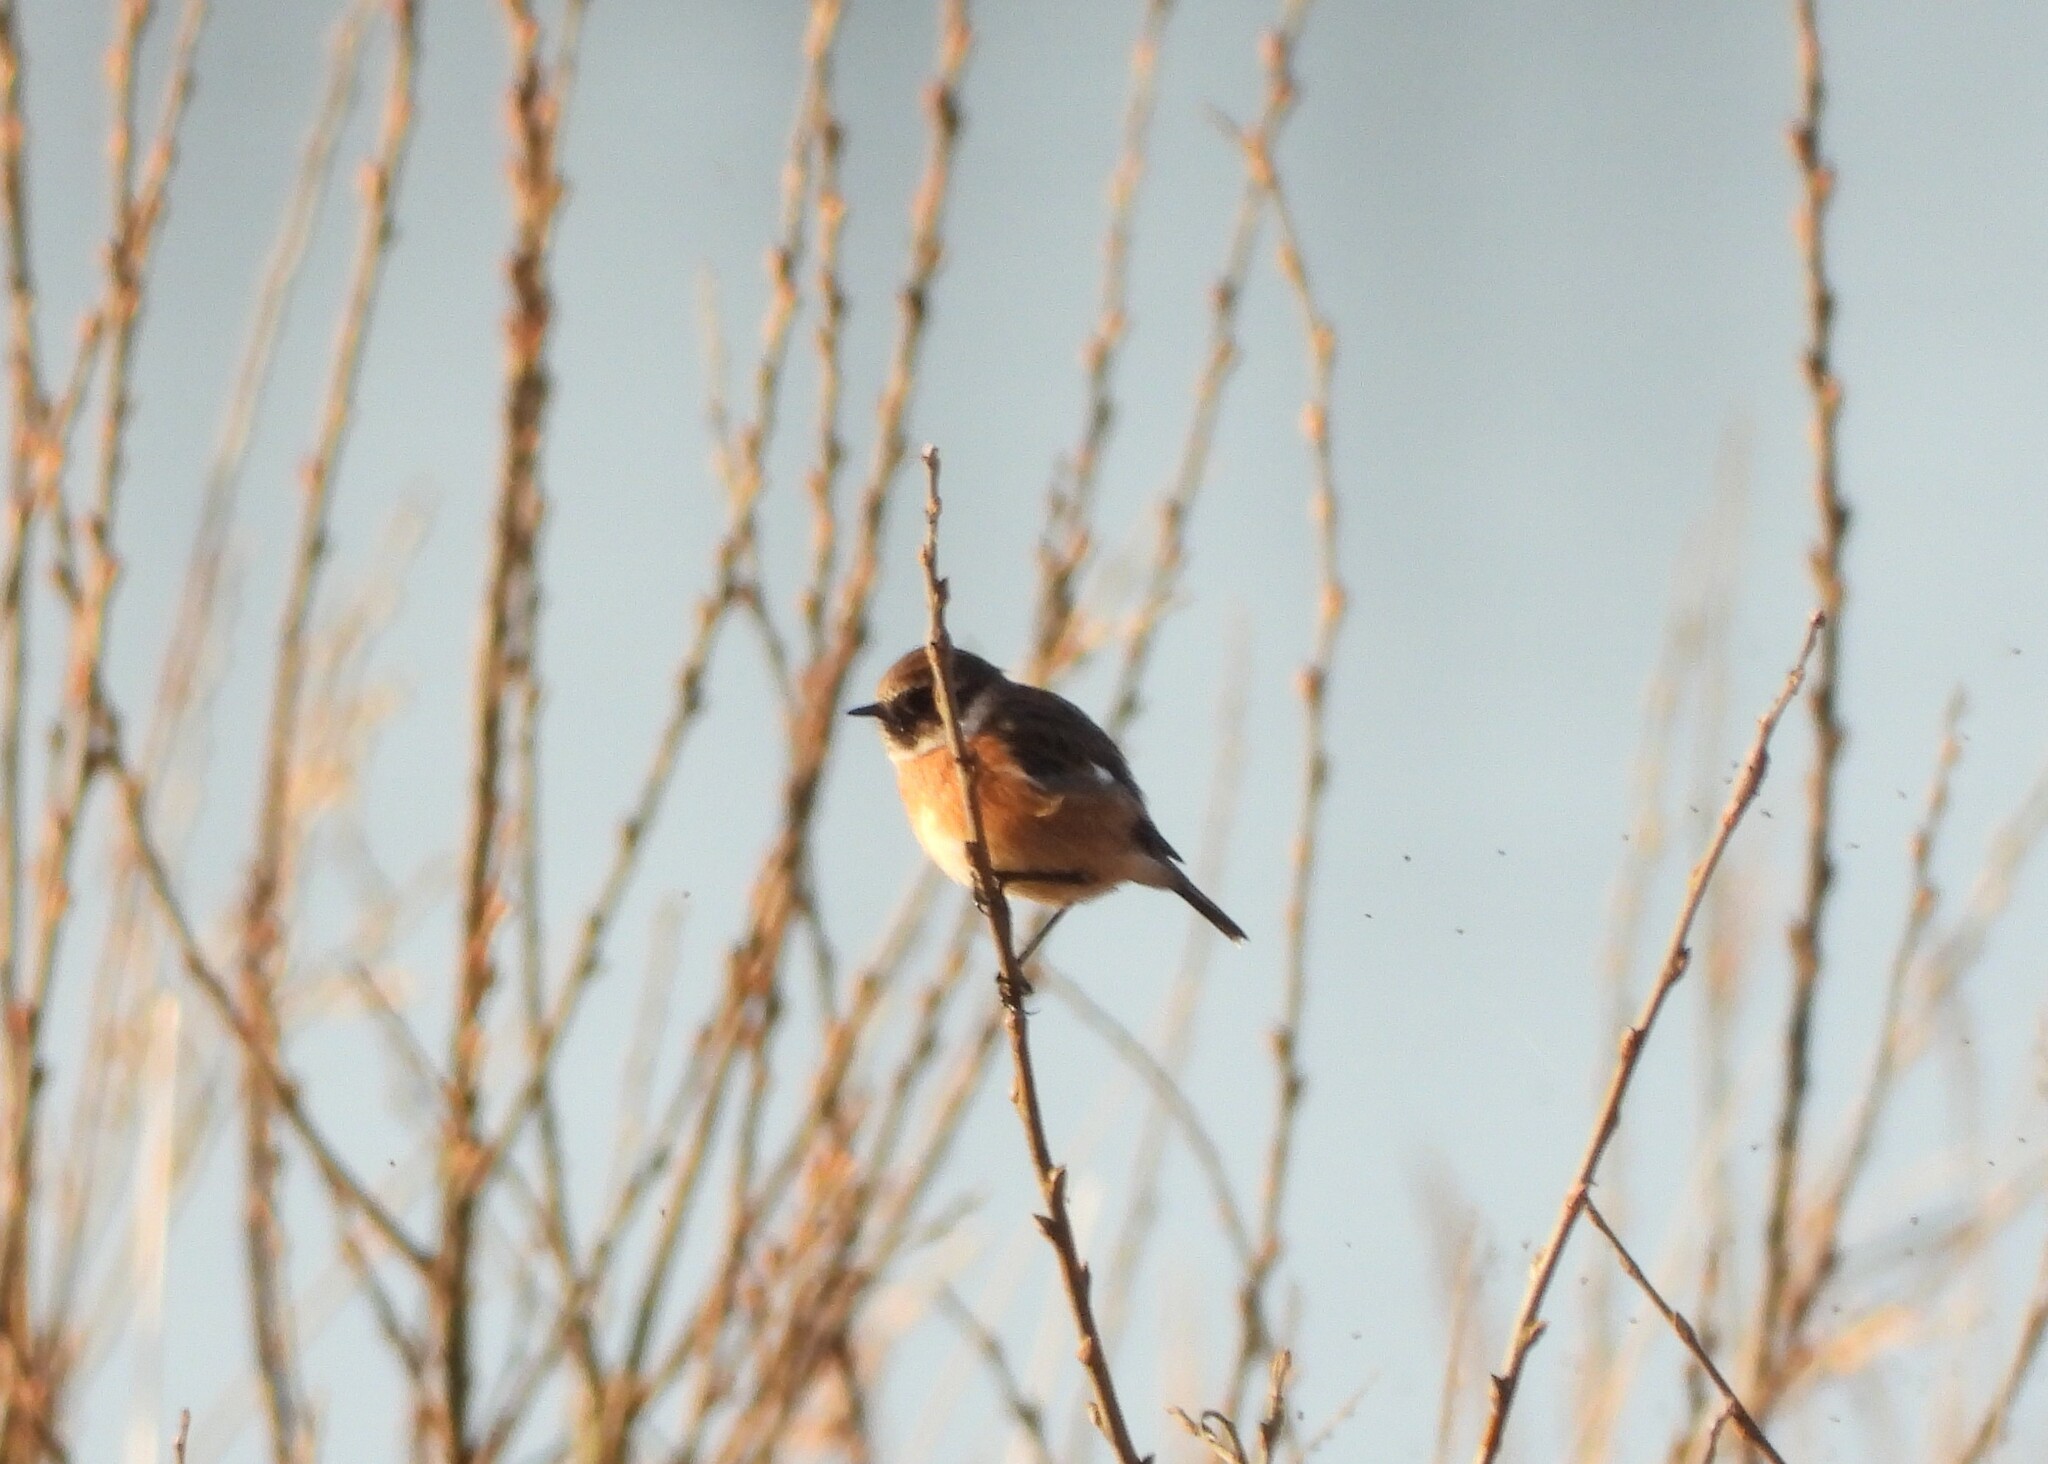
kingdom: Animalia
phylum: Chordata
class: Aves
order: Passeriformes
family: Muscicapidae
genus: Saxicola
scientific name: Saxicola rubicola
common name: European stonechat
